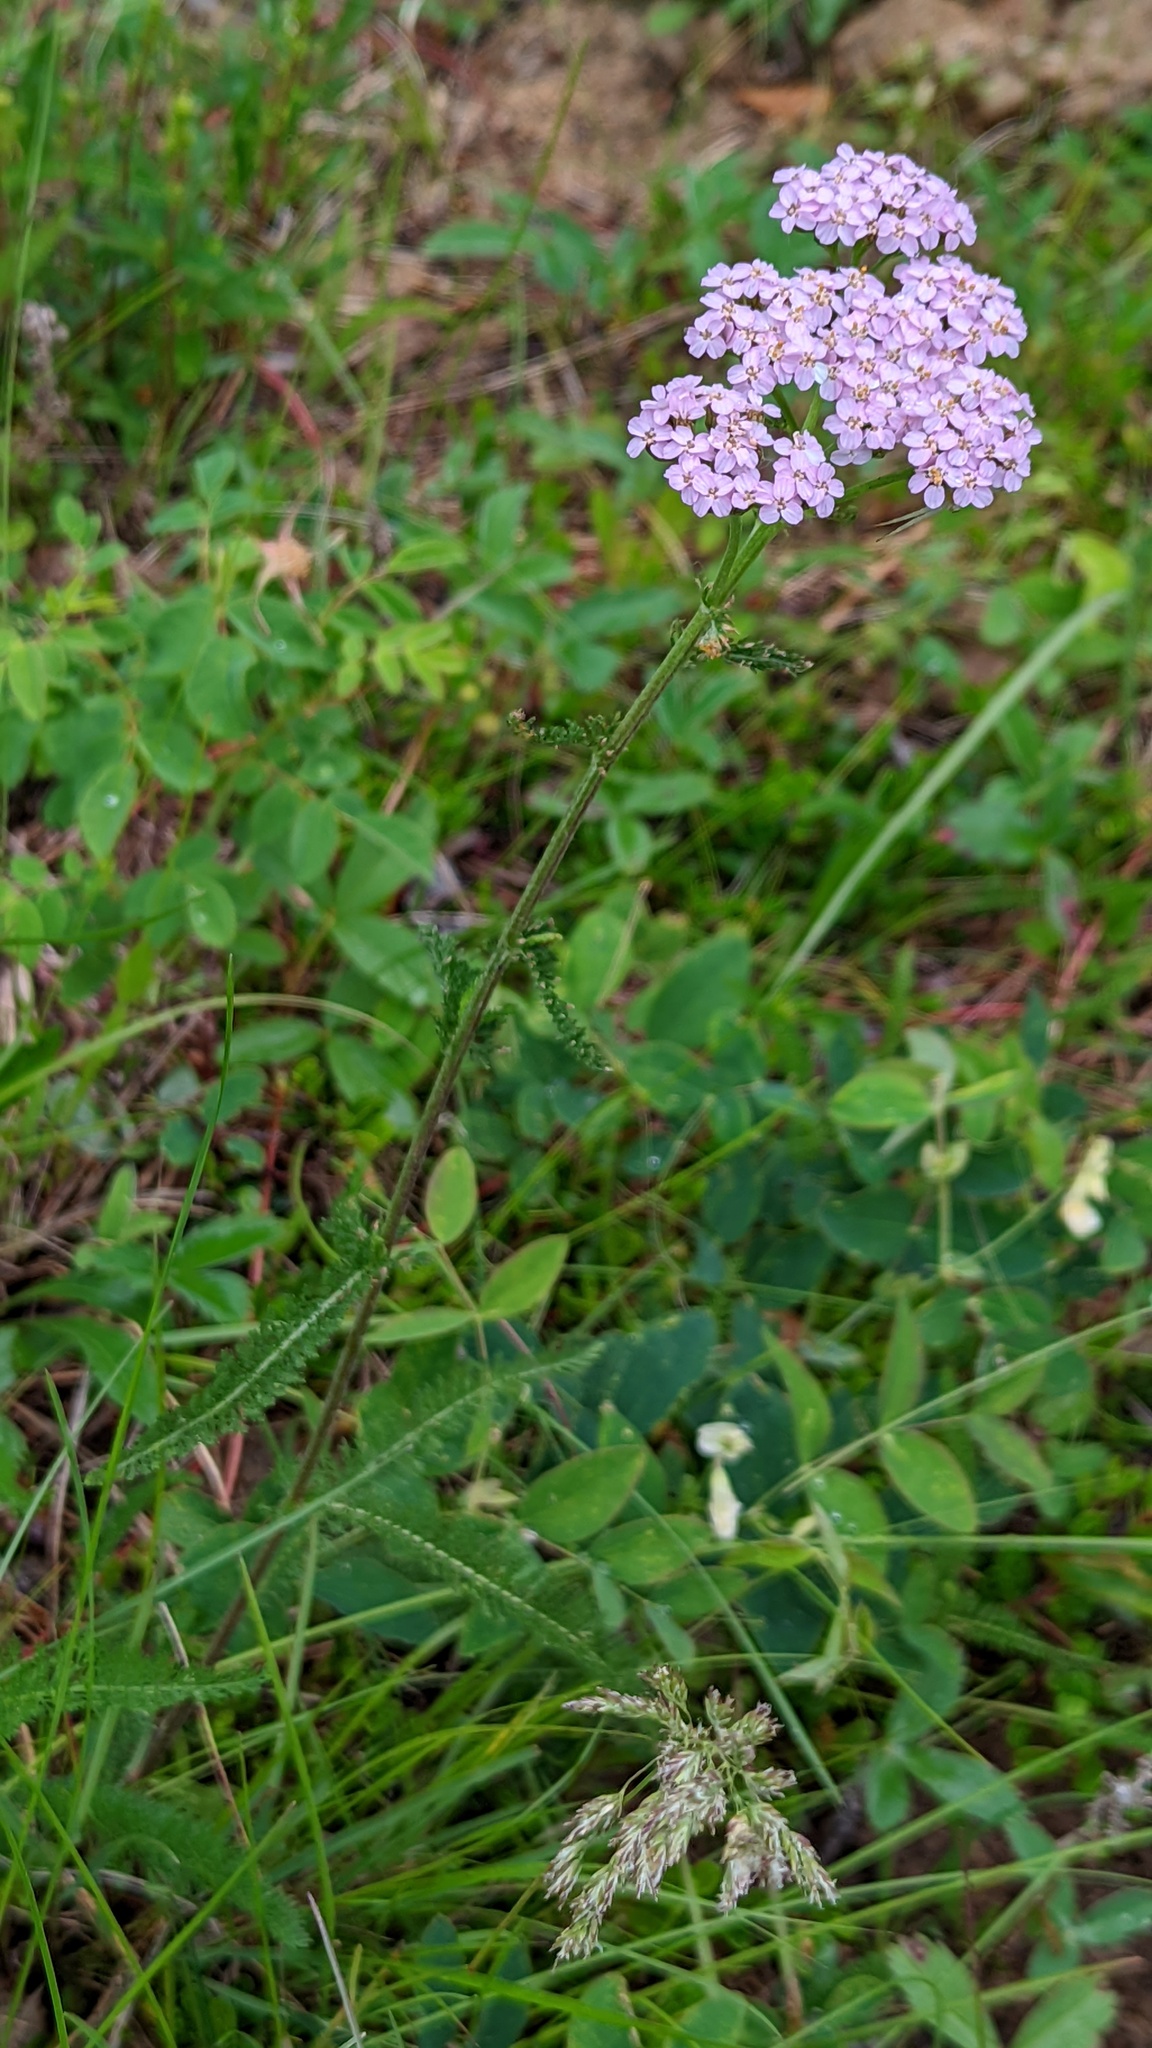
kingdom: Plantae
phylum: Tracheophyta
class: Magnoliopsida
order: Asterales
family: Asteraceae
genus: Achillea
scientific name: Achillea millefolium
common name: Yarrow
